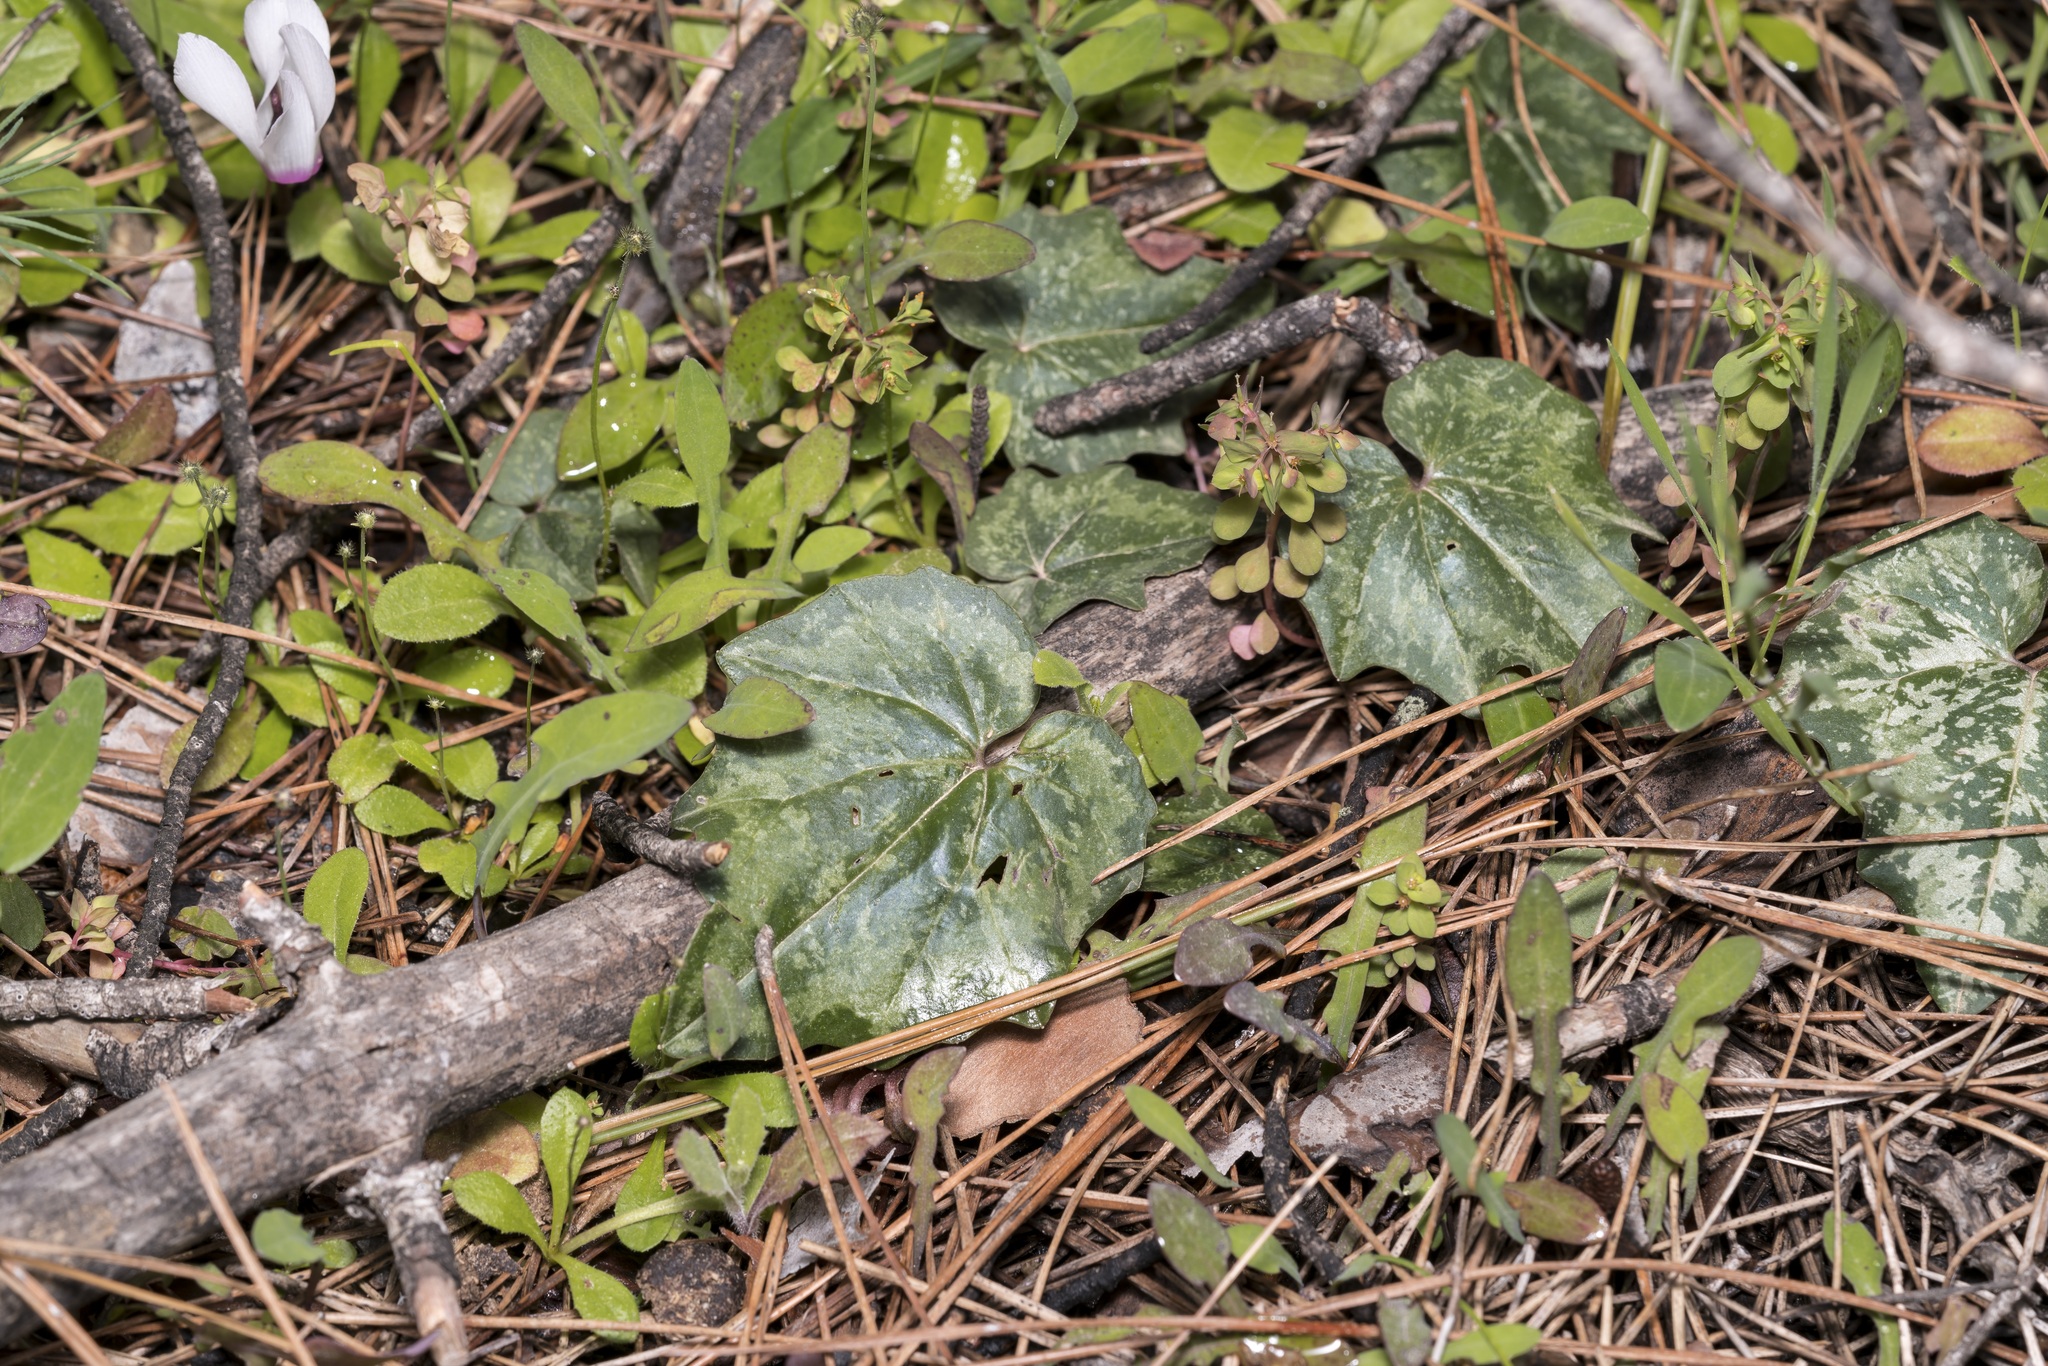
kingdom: Plantae
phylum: Tracheophyta
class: Magnoliopsida
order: Ericales
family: Primulaceae
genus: Cyclamen
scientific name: Cyclamen repandum
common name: Spring sowbread
